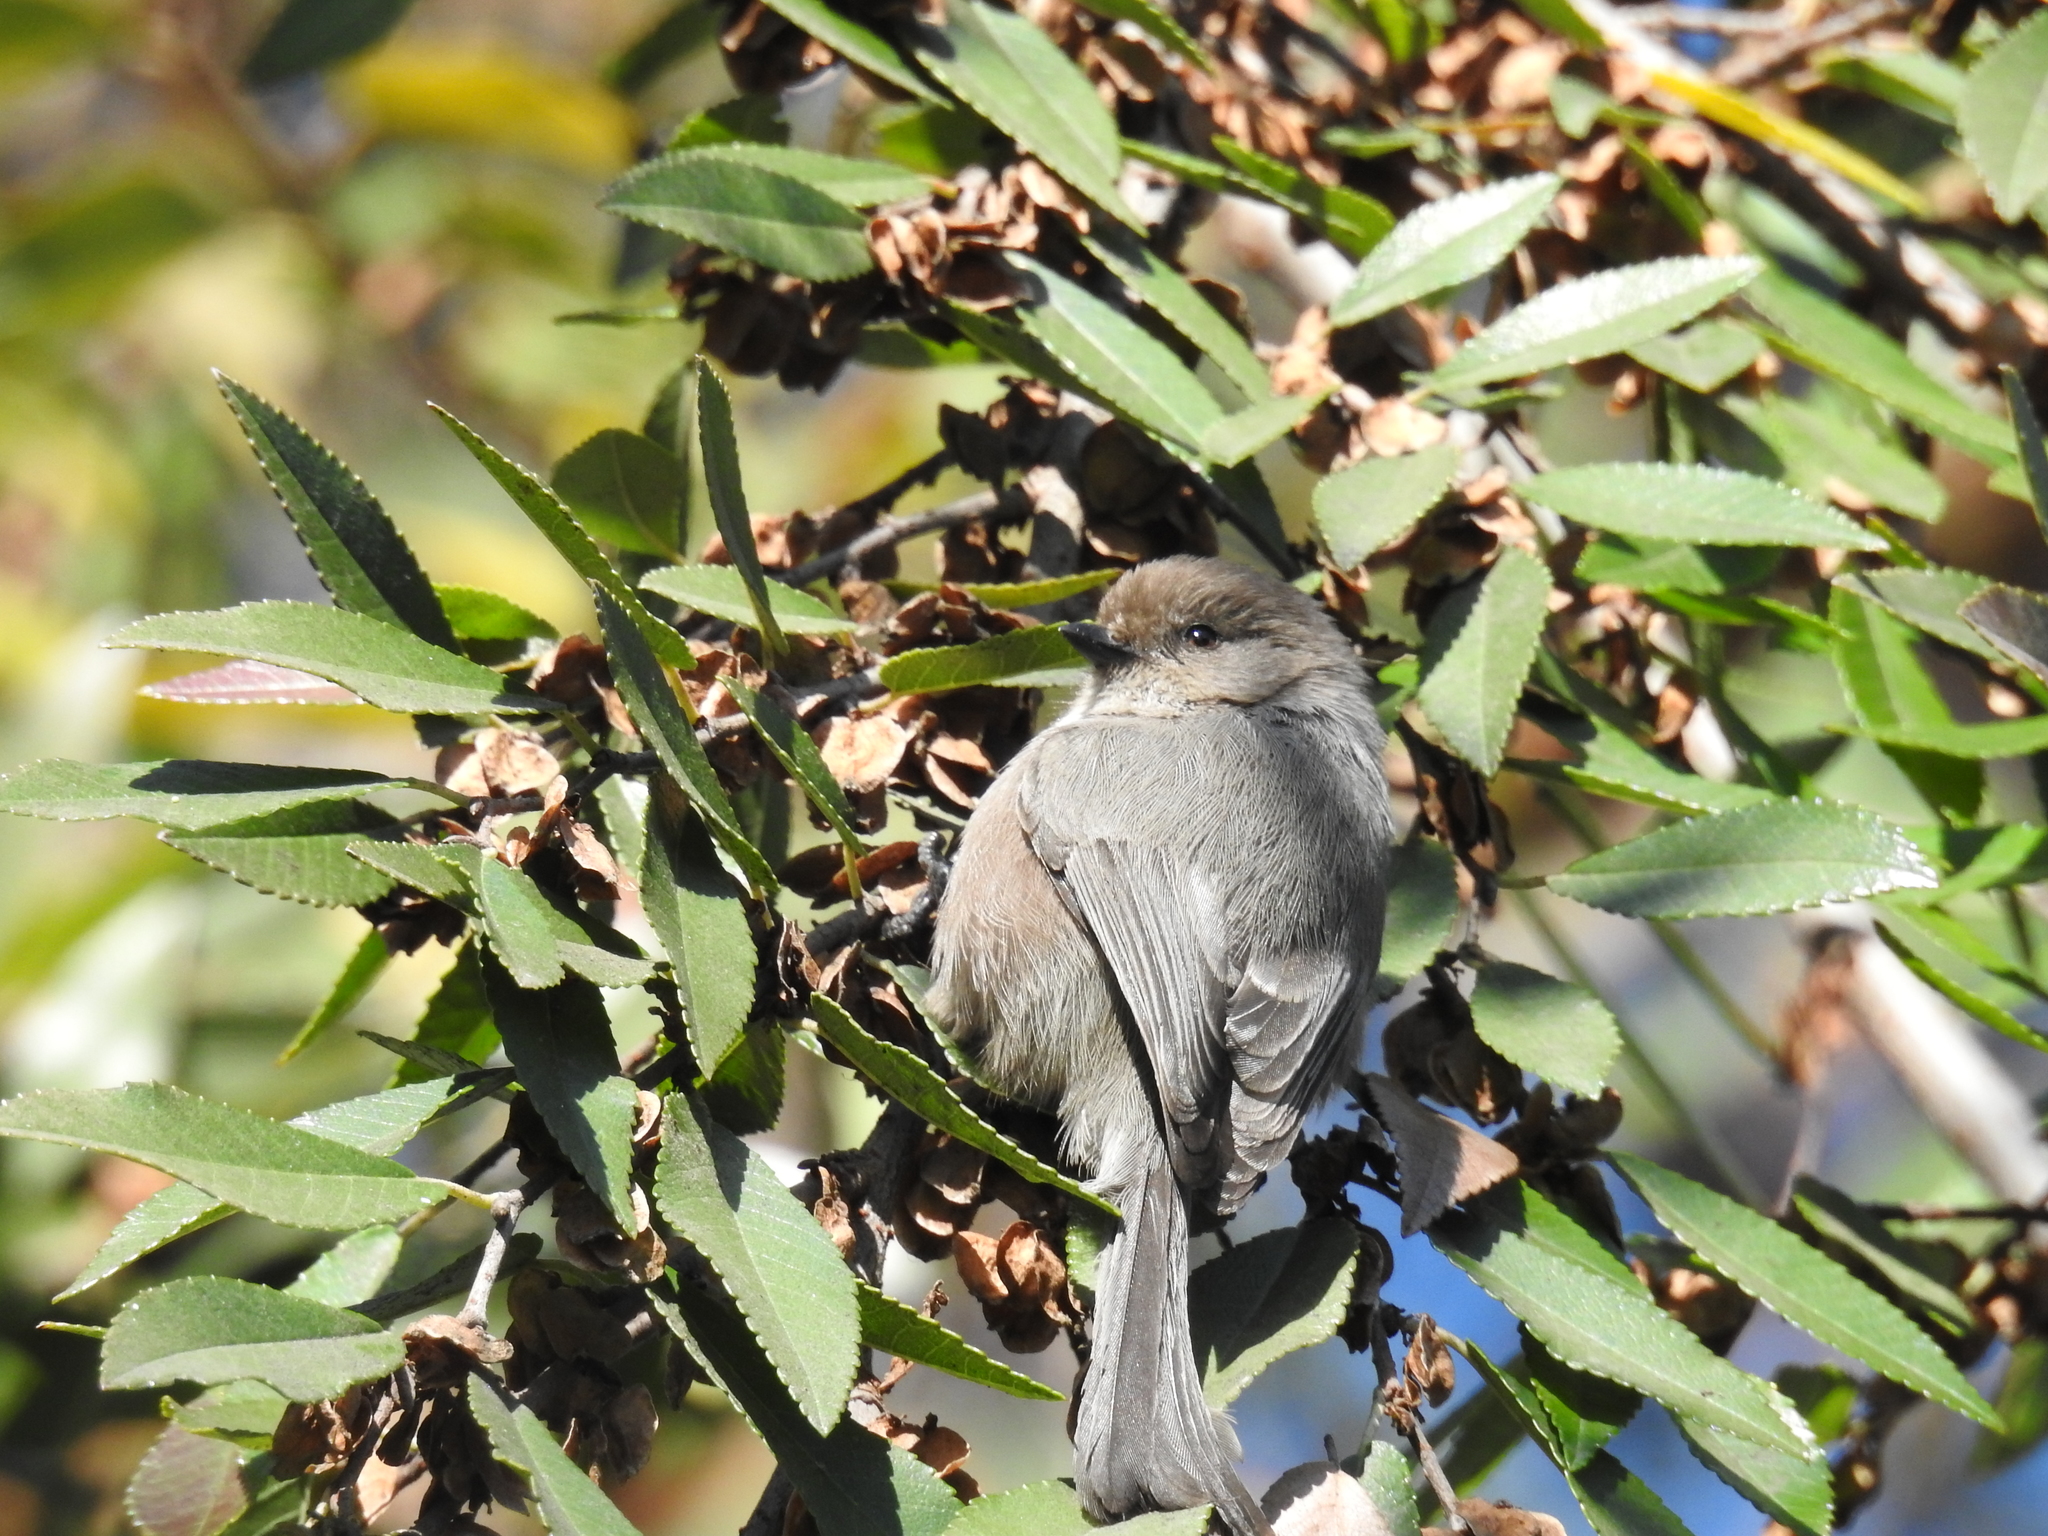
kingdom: Animalia
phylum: Chordata
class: Aves
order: Passeriformes
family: Aegithalidae
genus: Psaltriparus
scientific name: Psaltriparus minimus
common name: American bushtit
